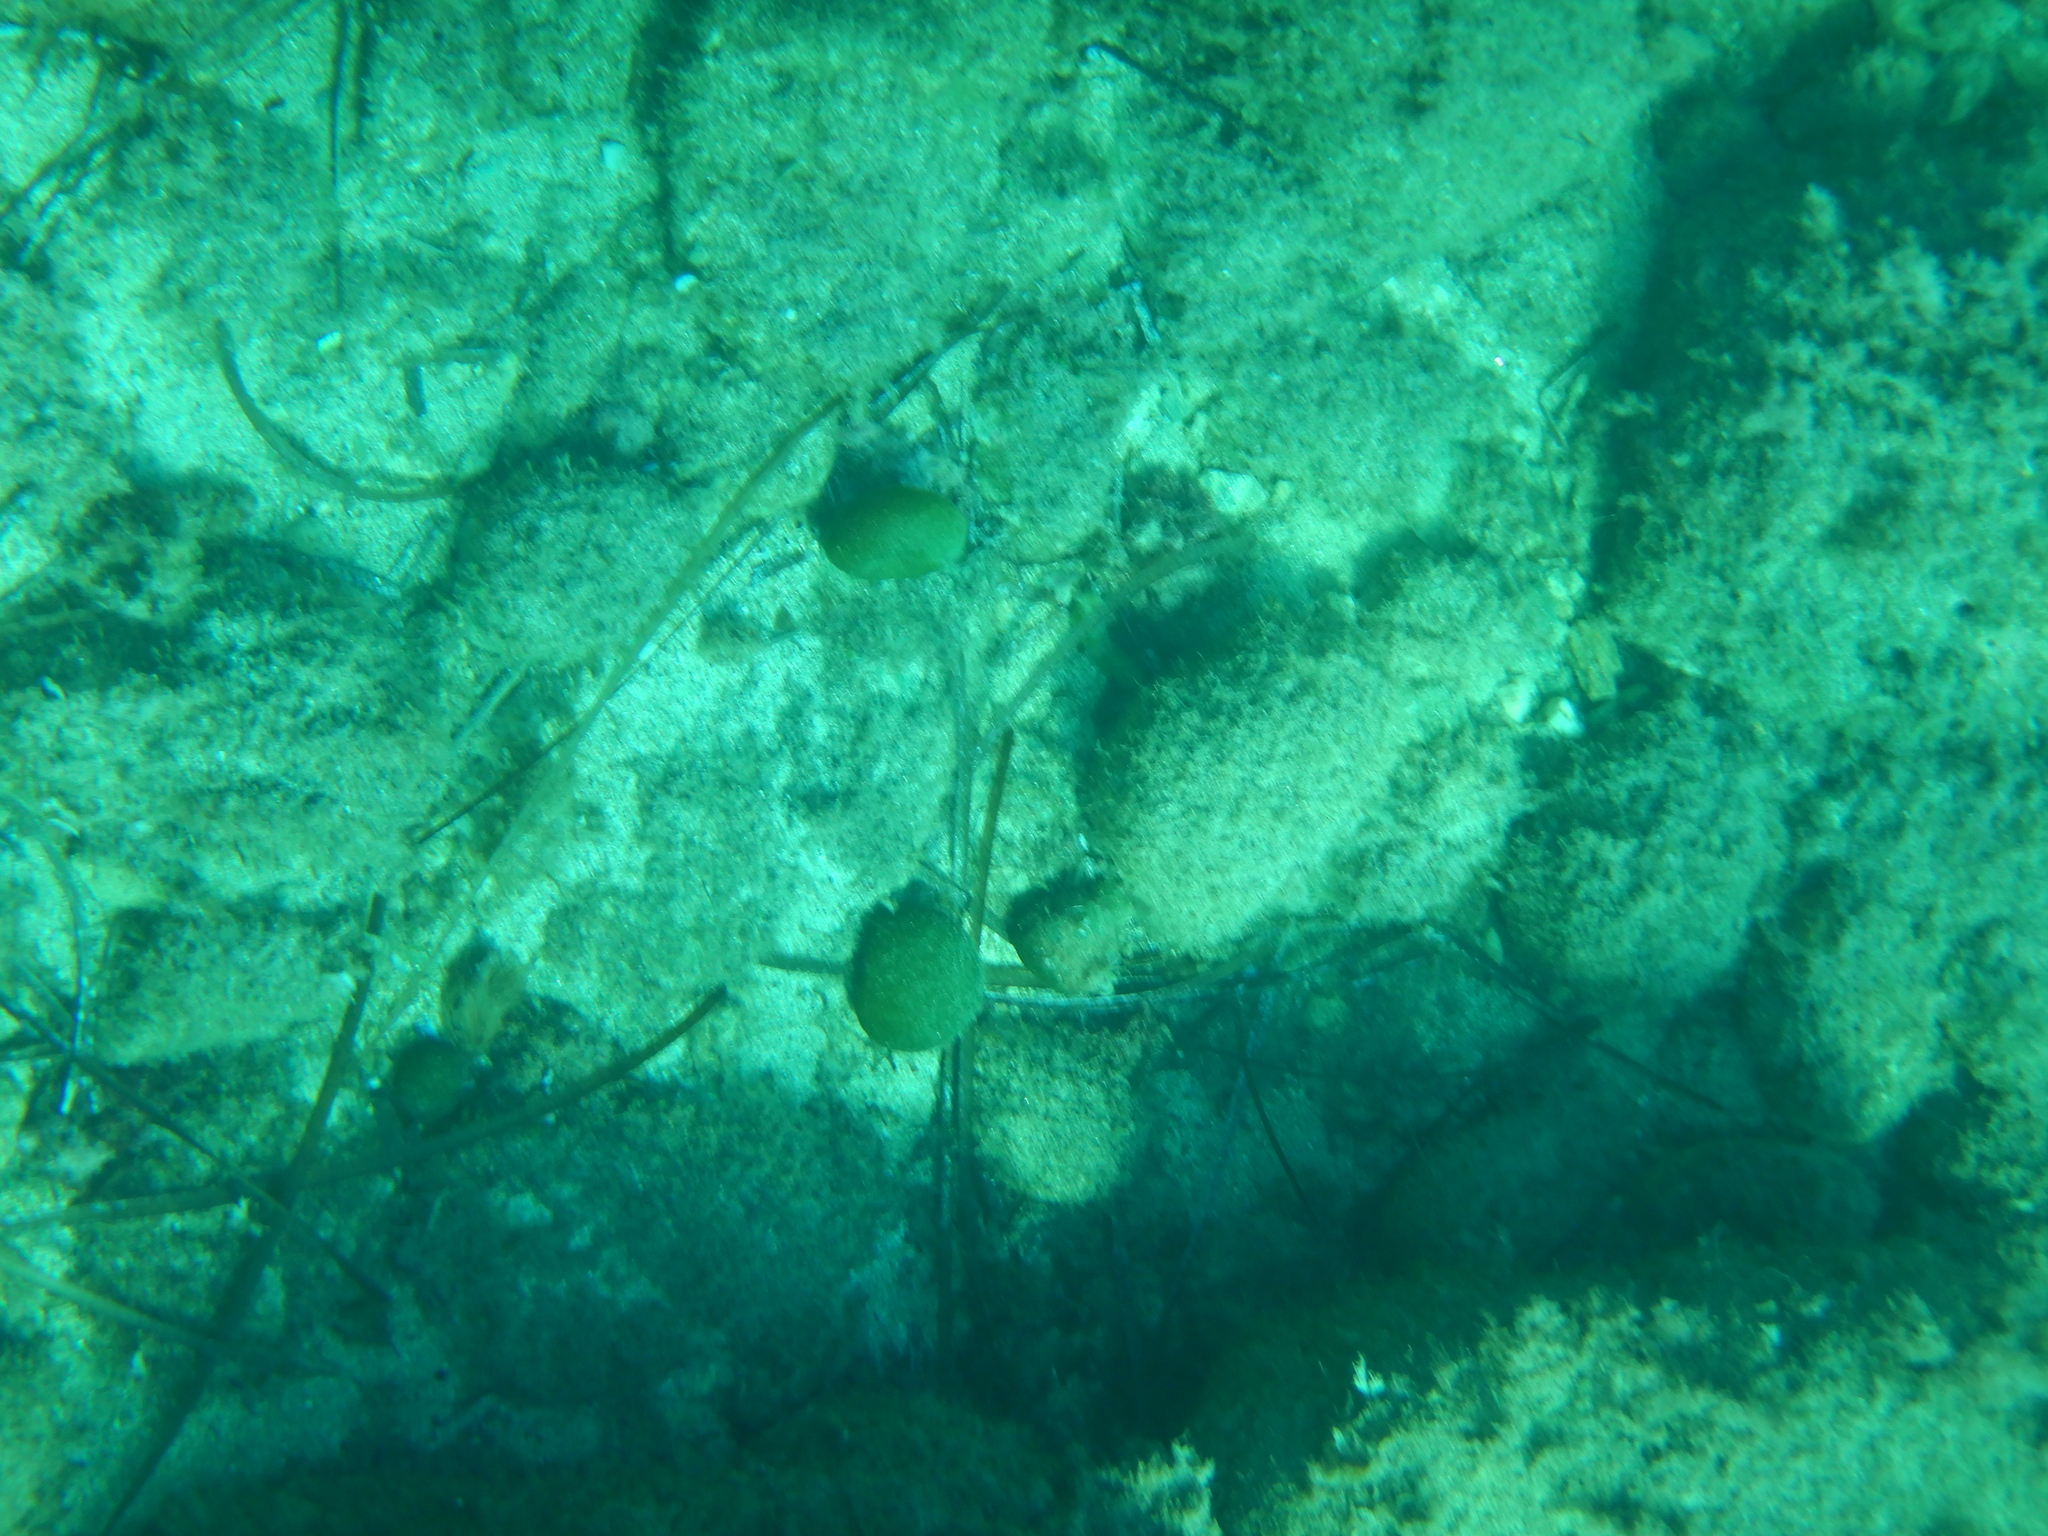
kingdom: Plantae
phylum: Chlorophyta
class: Ulvophyceae
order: Bryopsidales
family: Codiaceae
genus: Codium
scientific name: Codium bursa
